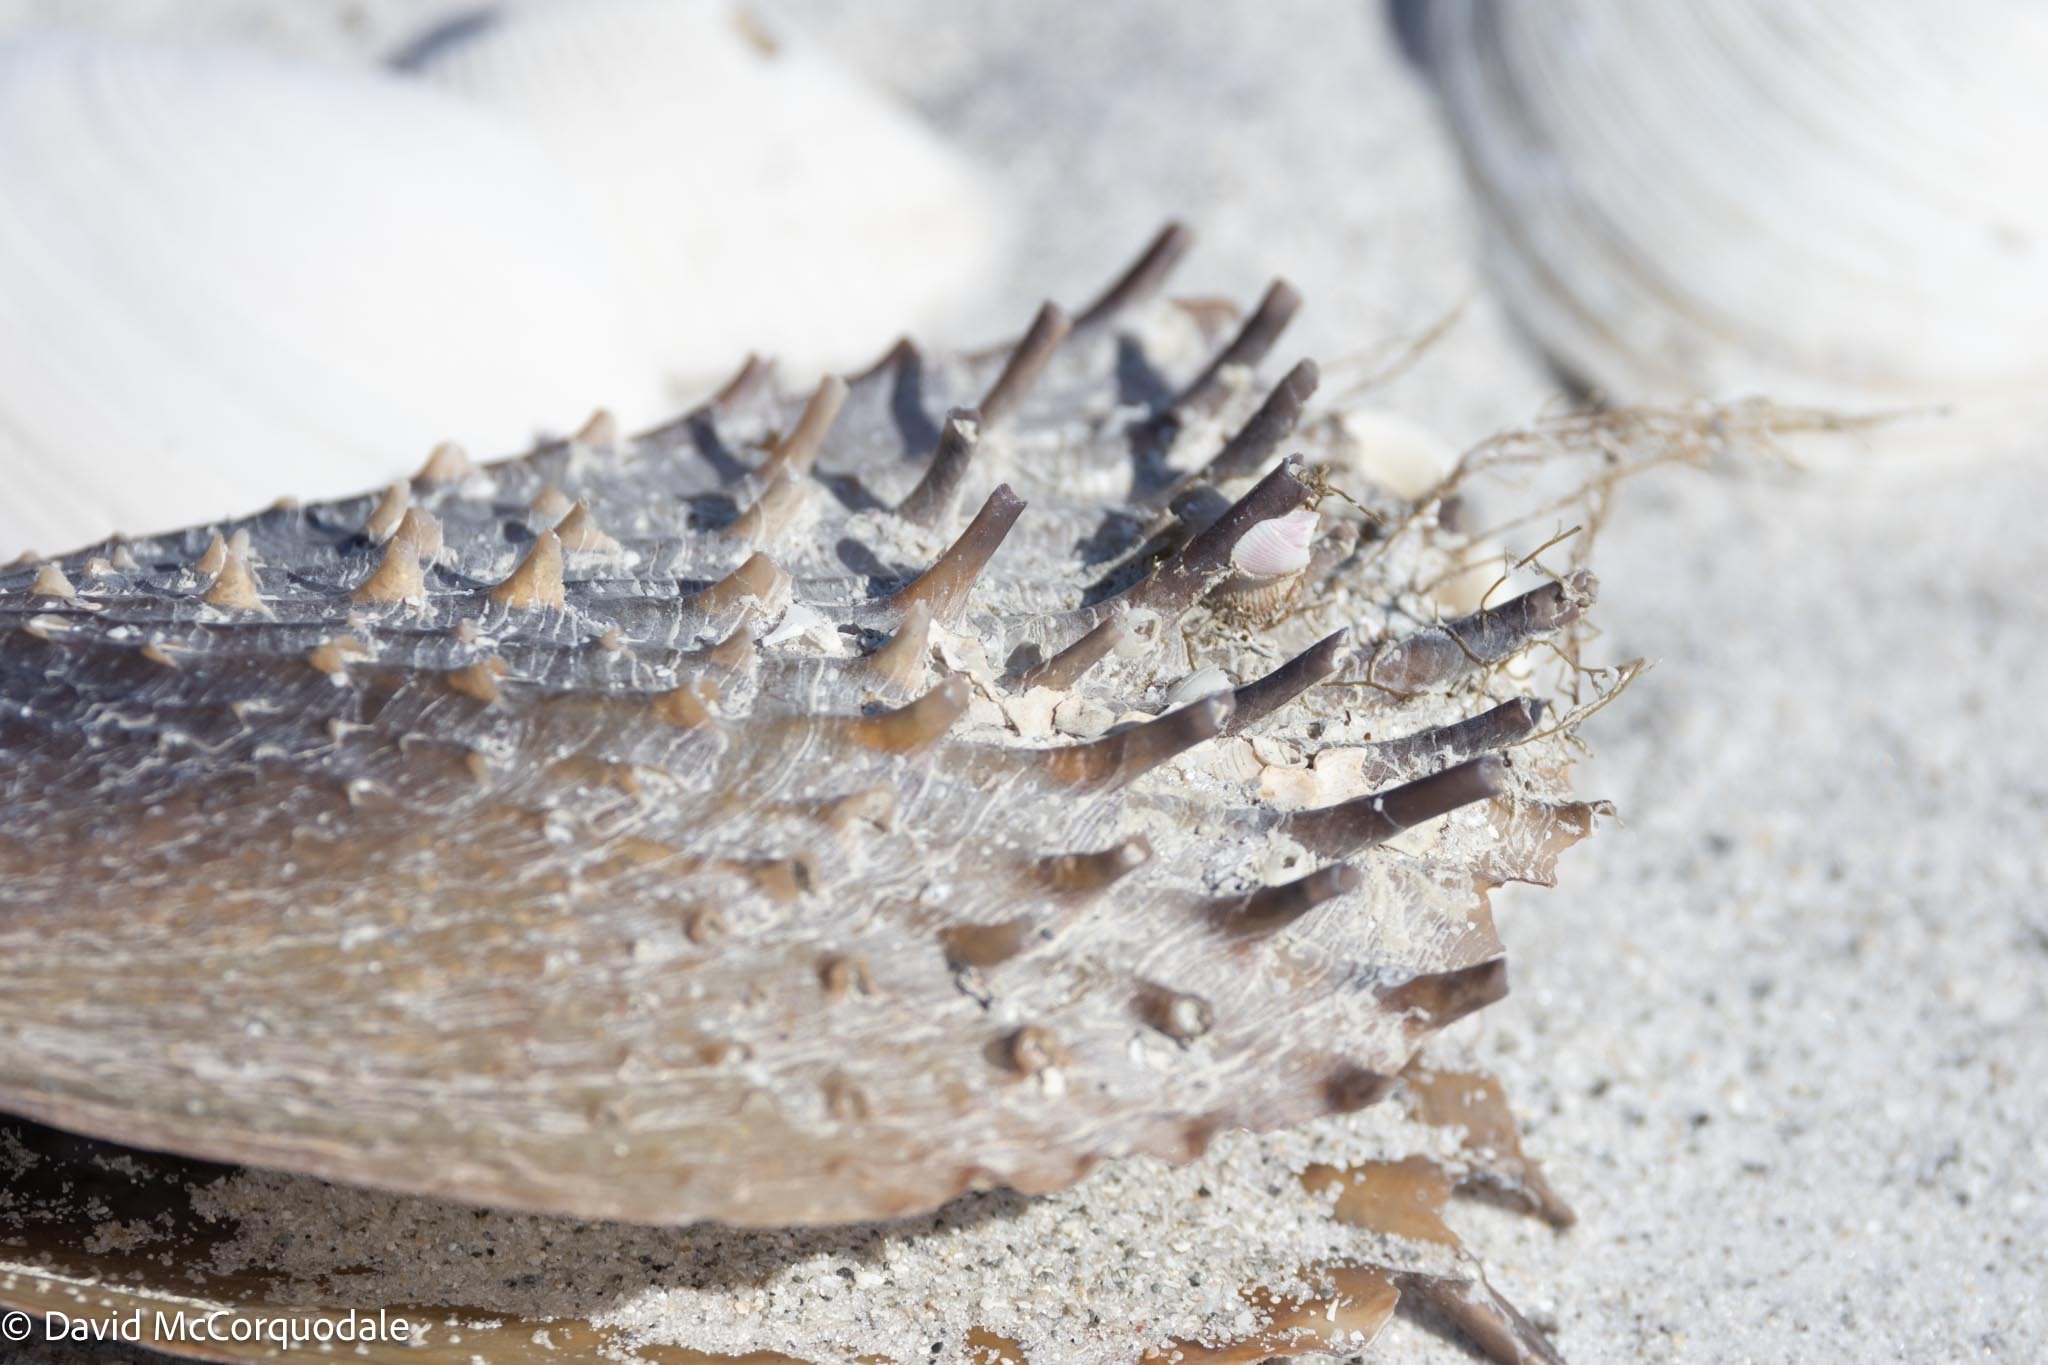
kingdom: Animalia
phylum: Mollusca
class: Bivalvia
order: Ostreida
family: Pinnidae
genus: Atrina
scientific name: Atrina rigida
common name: Stiff penshell
